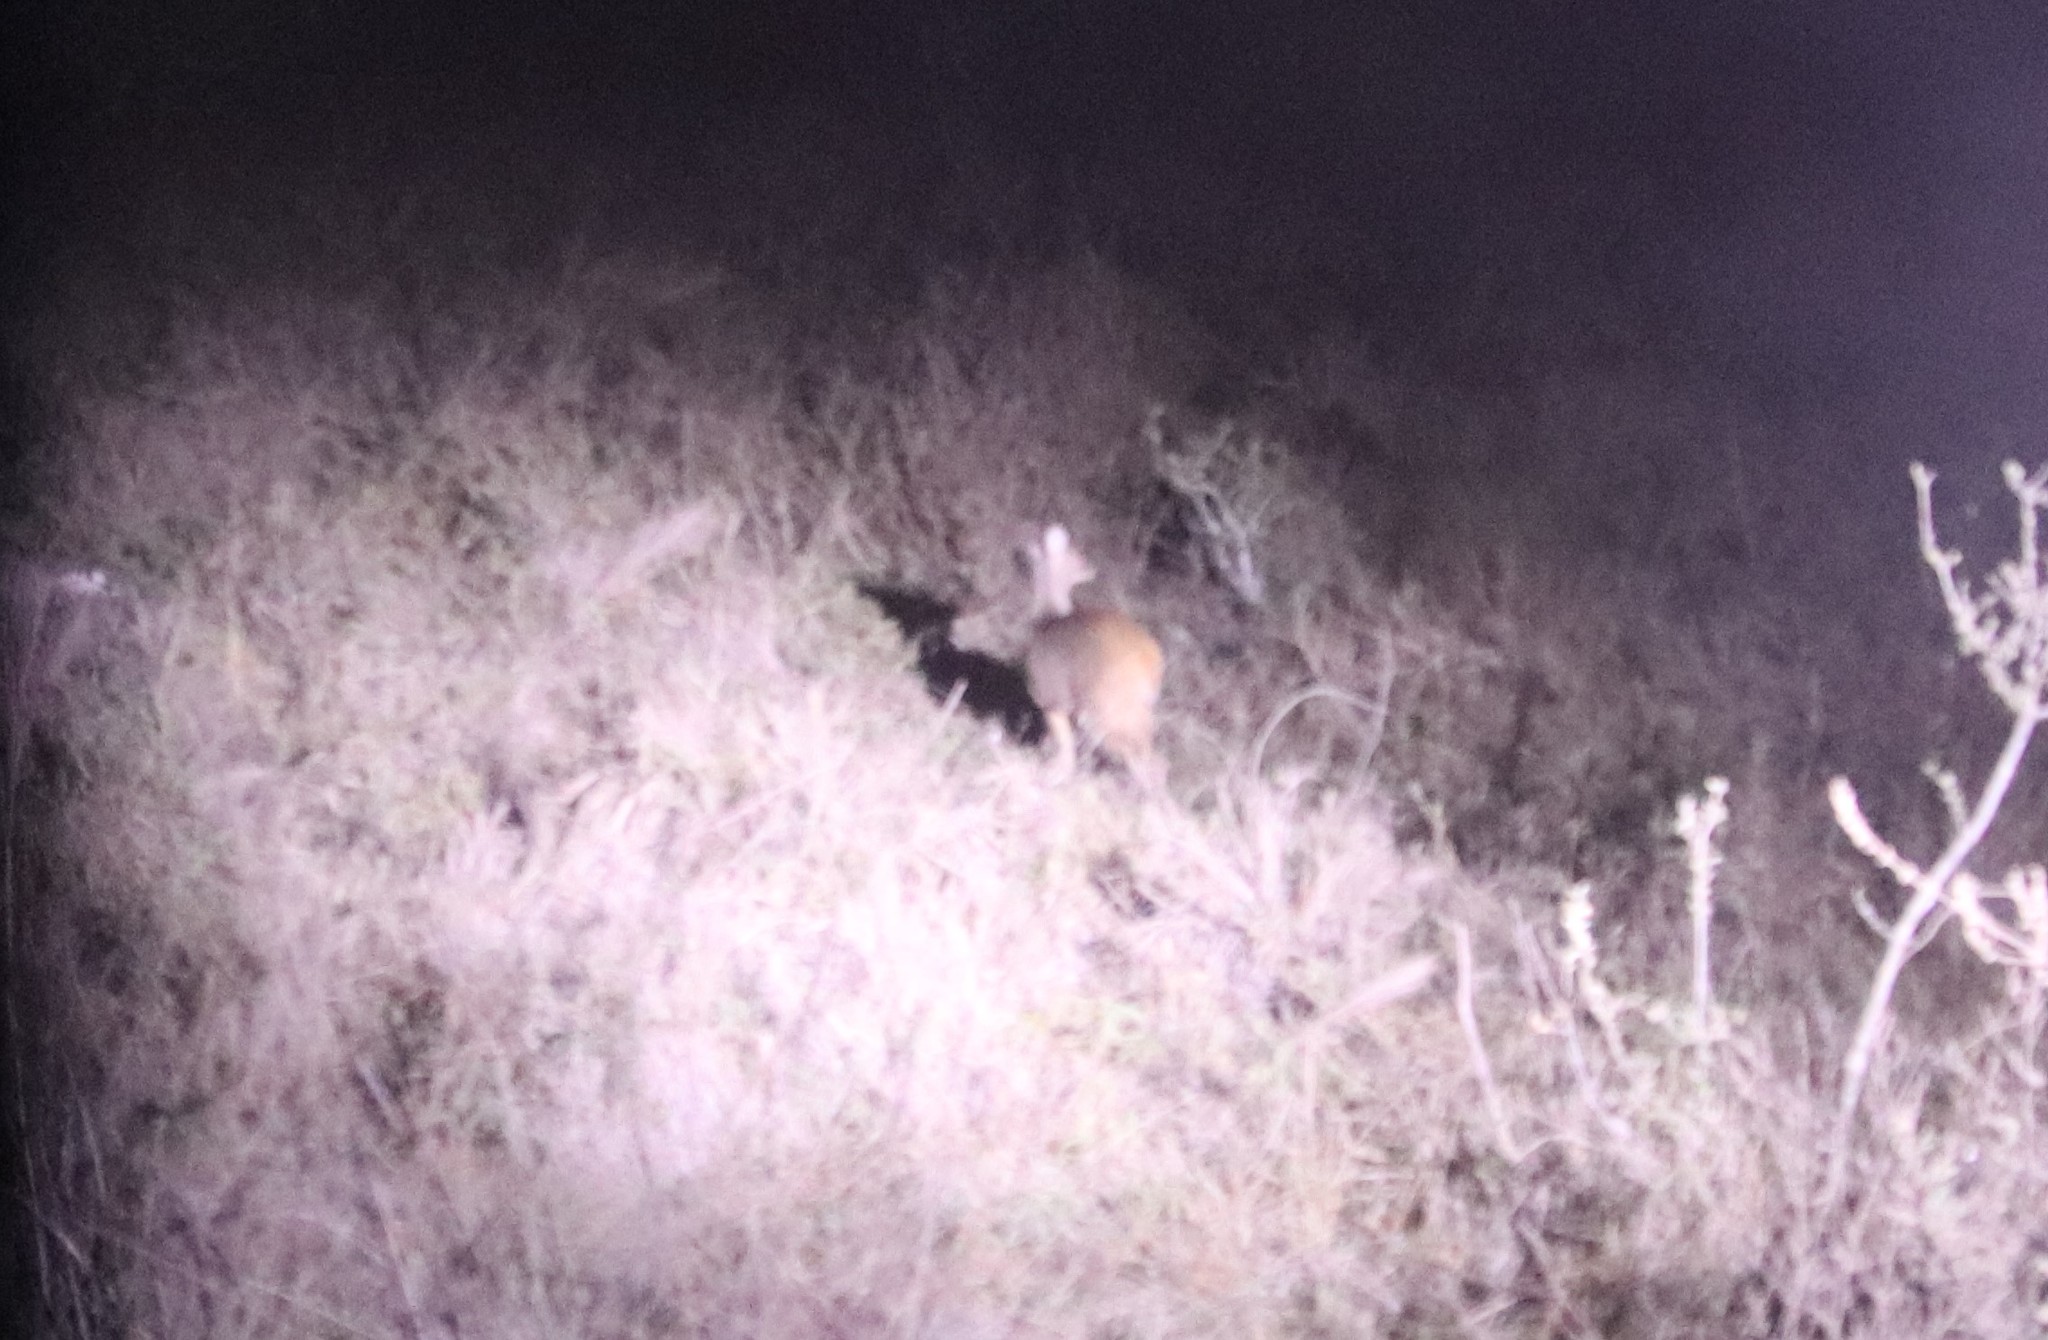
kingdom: Animalia
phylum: Chordata
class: Mammalia
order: Artiodactyla
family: Cervidae
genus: Mazama
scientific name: Mazama gouazoubira
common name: Gray brocket
